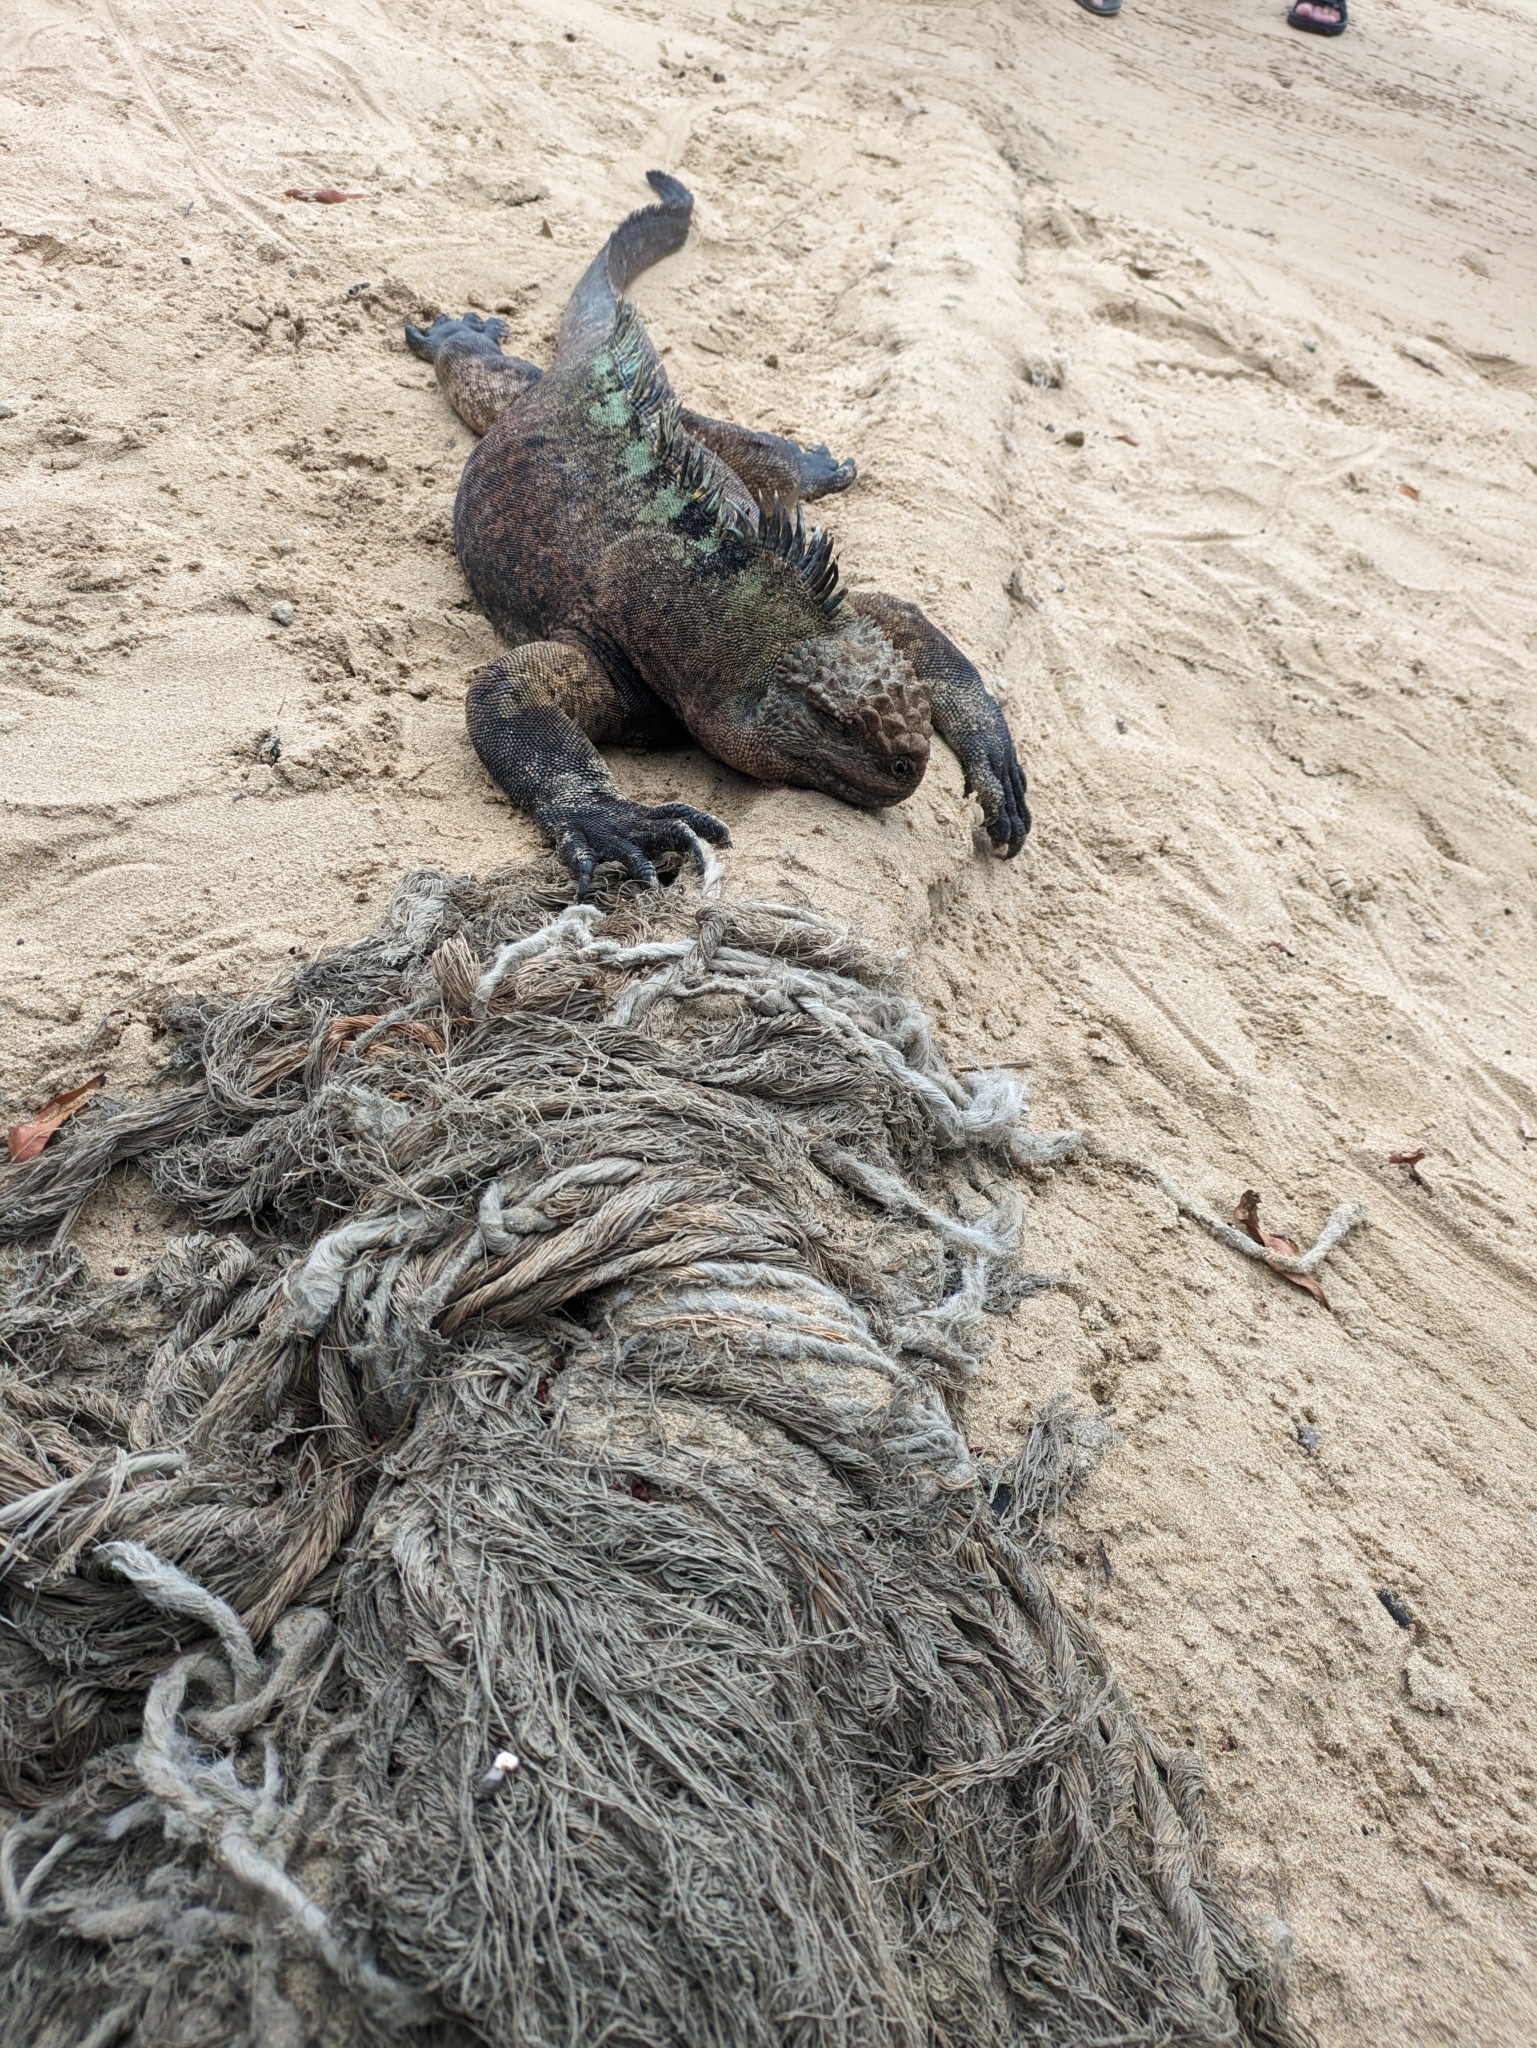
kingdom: Animalia
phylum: Chordata
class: Squamata
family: Iguanidae
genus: Amblyrhynchus
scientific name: Amblyrhynchus cristatus
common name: Marine iguana
